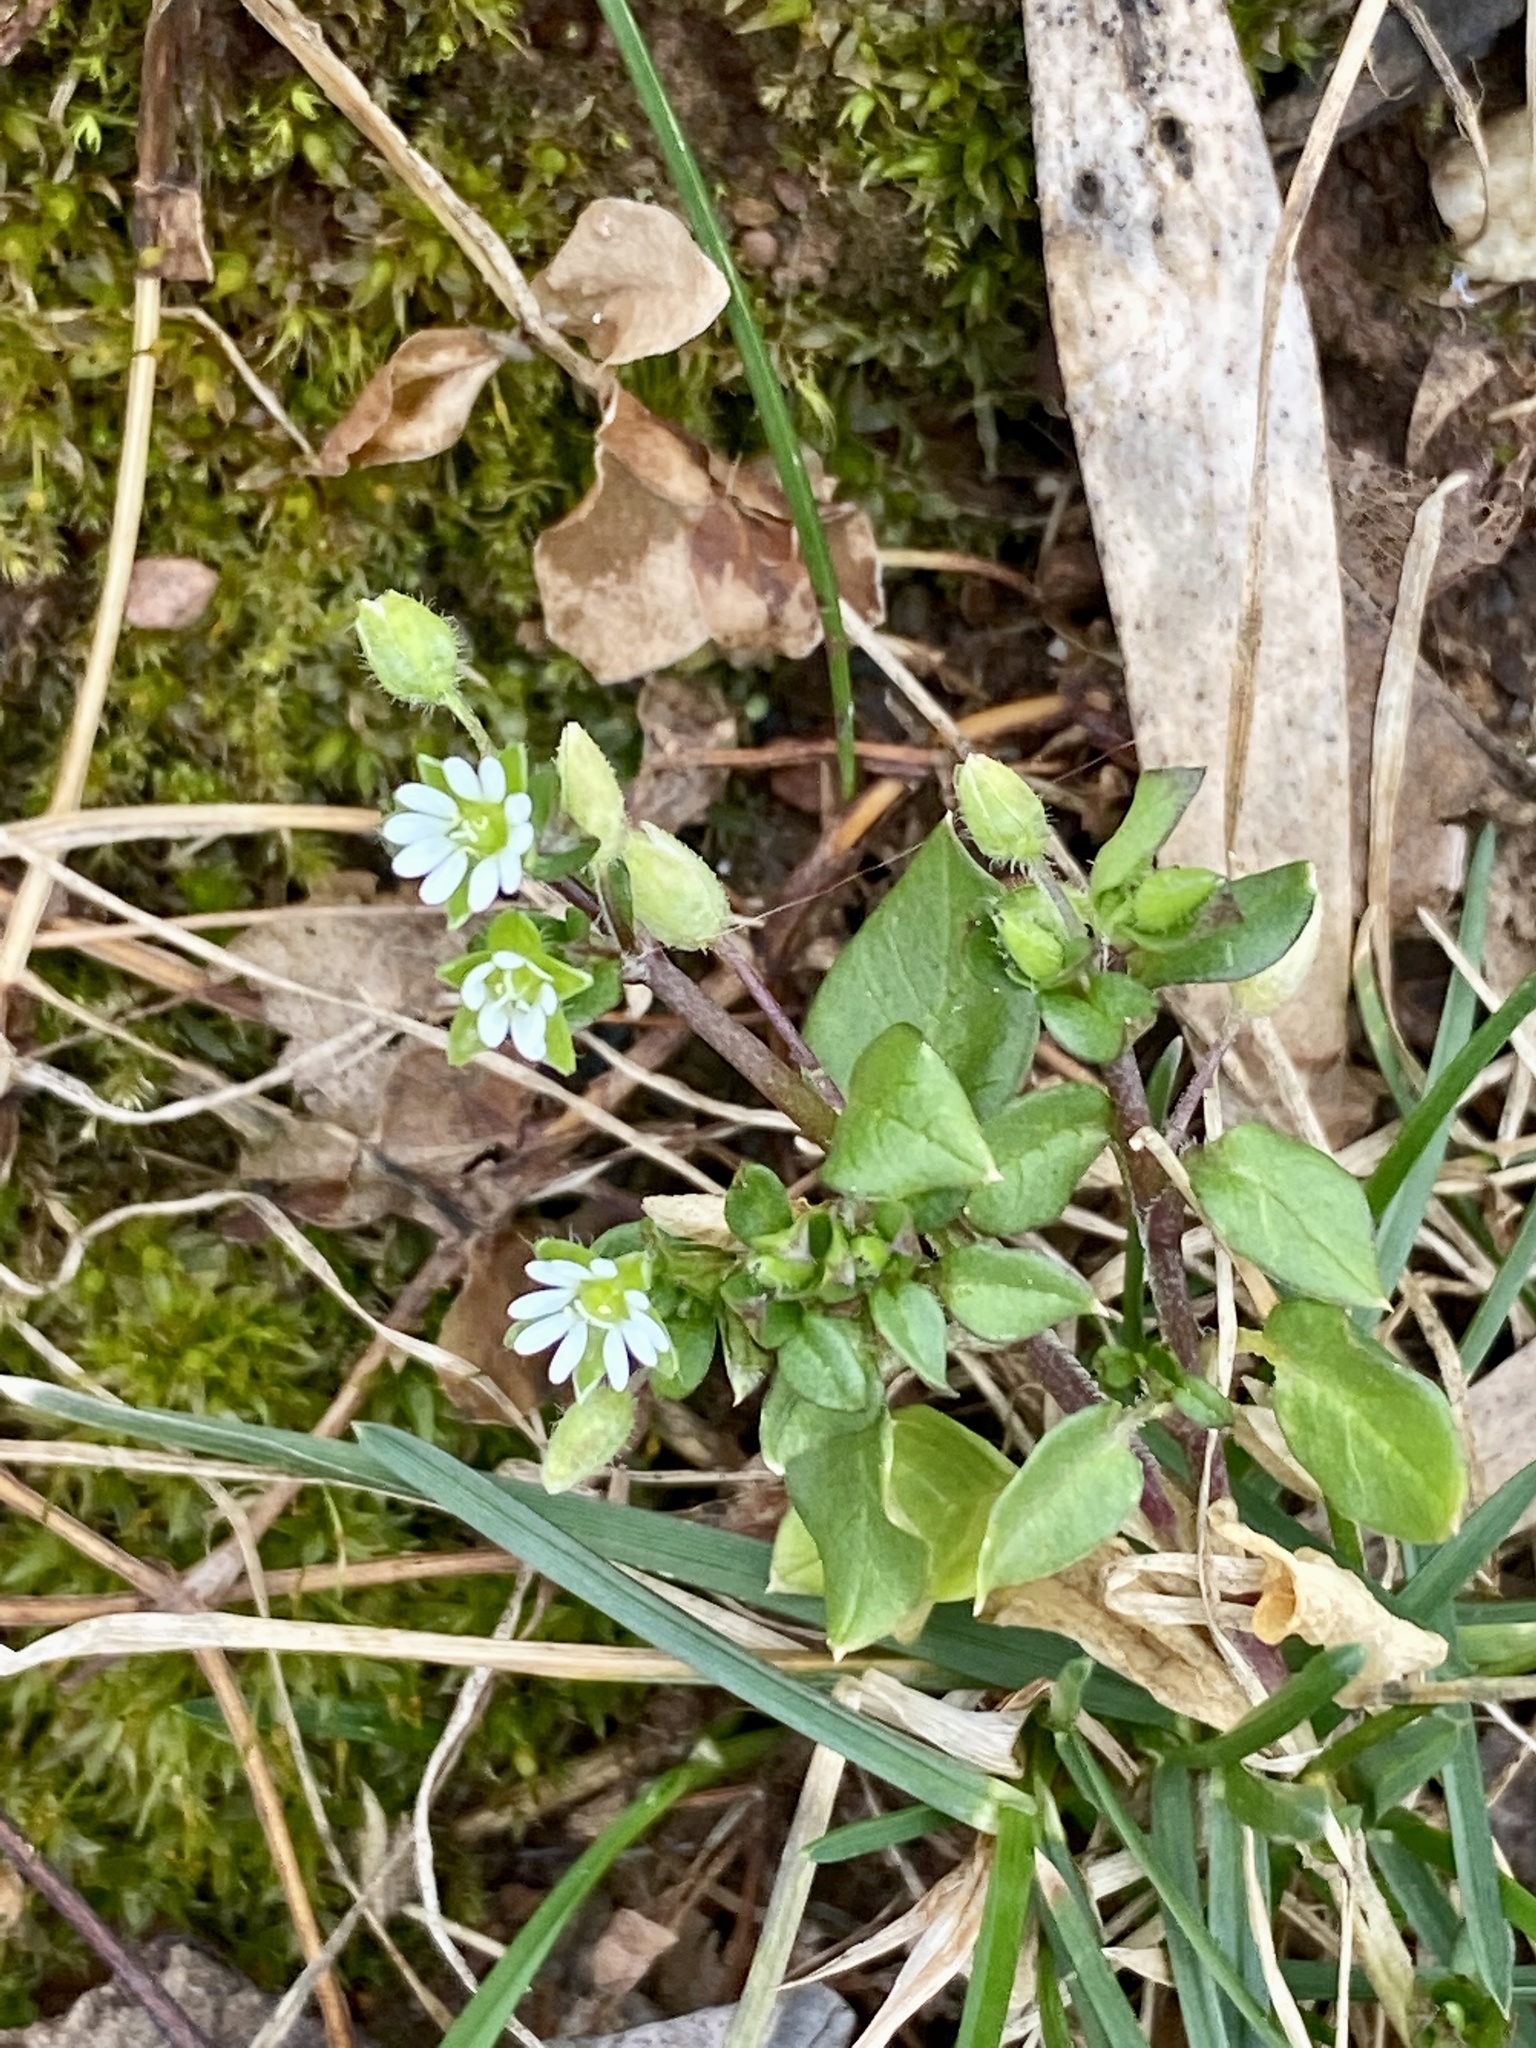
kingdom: Plantae
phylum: Tracheophyta
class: Magnoliopsida
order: Caryophyllales
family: Caryophyllaceae
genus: Stellaria
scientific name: Stellaria media
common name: Common chickweed
